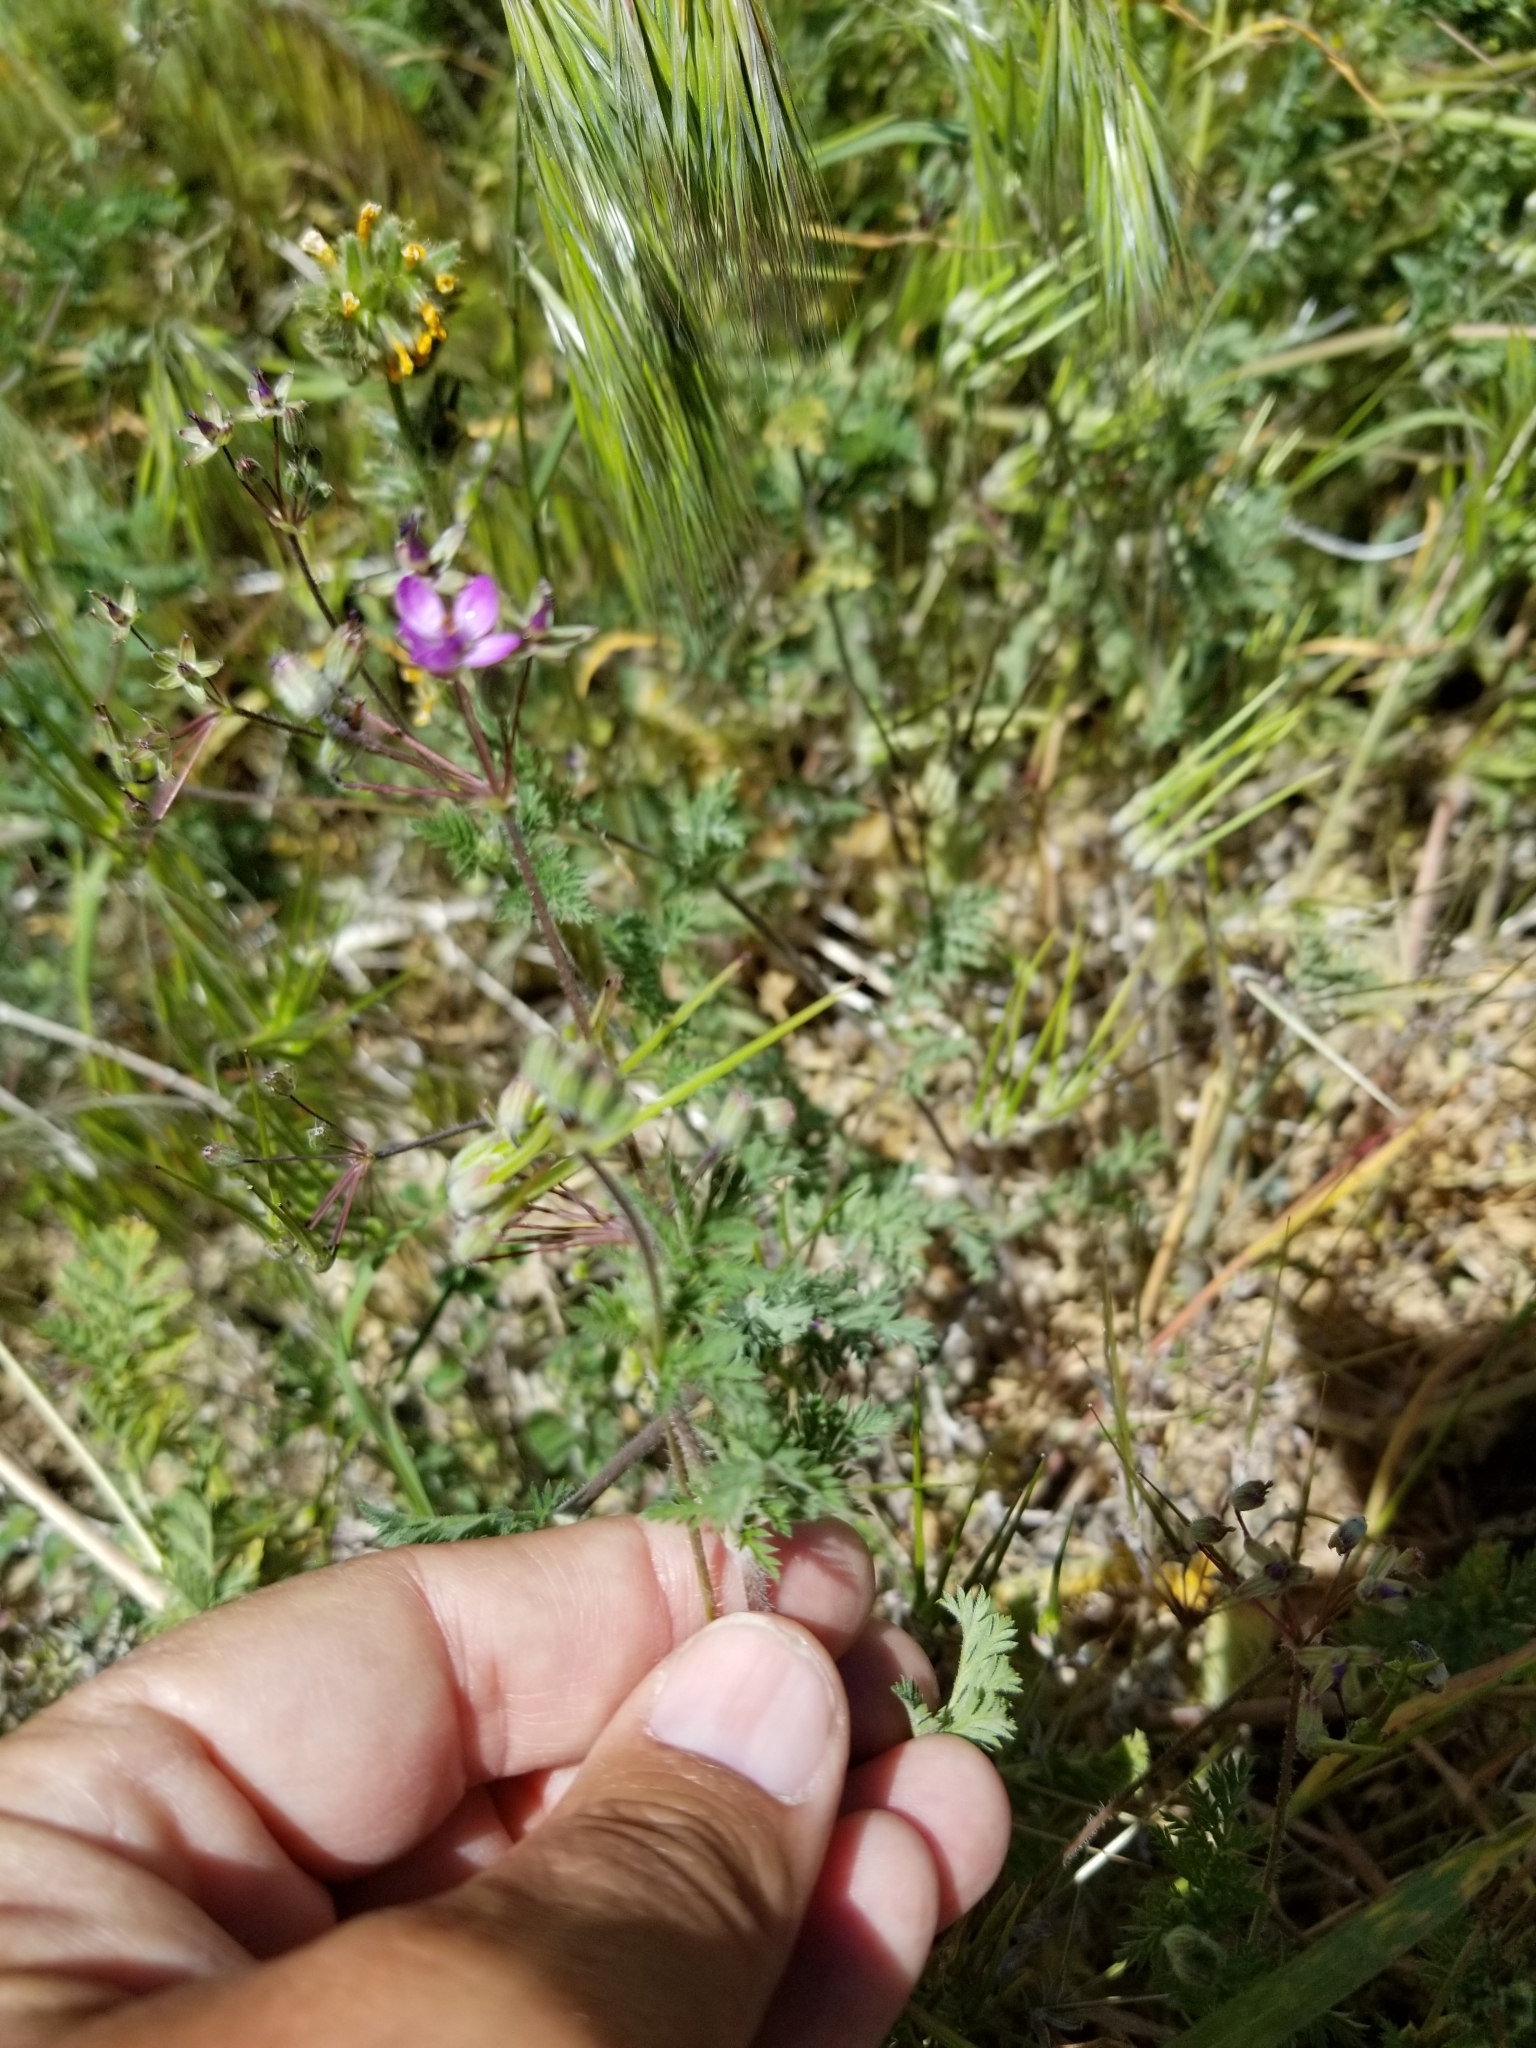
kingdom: Plantae
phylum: Tracheophyta
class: Magnoliopsida
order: Geraniales
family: Geraniaceae
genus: Erodium
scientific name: Erodium cicutarium
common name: Common stork's-bill
